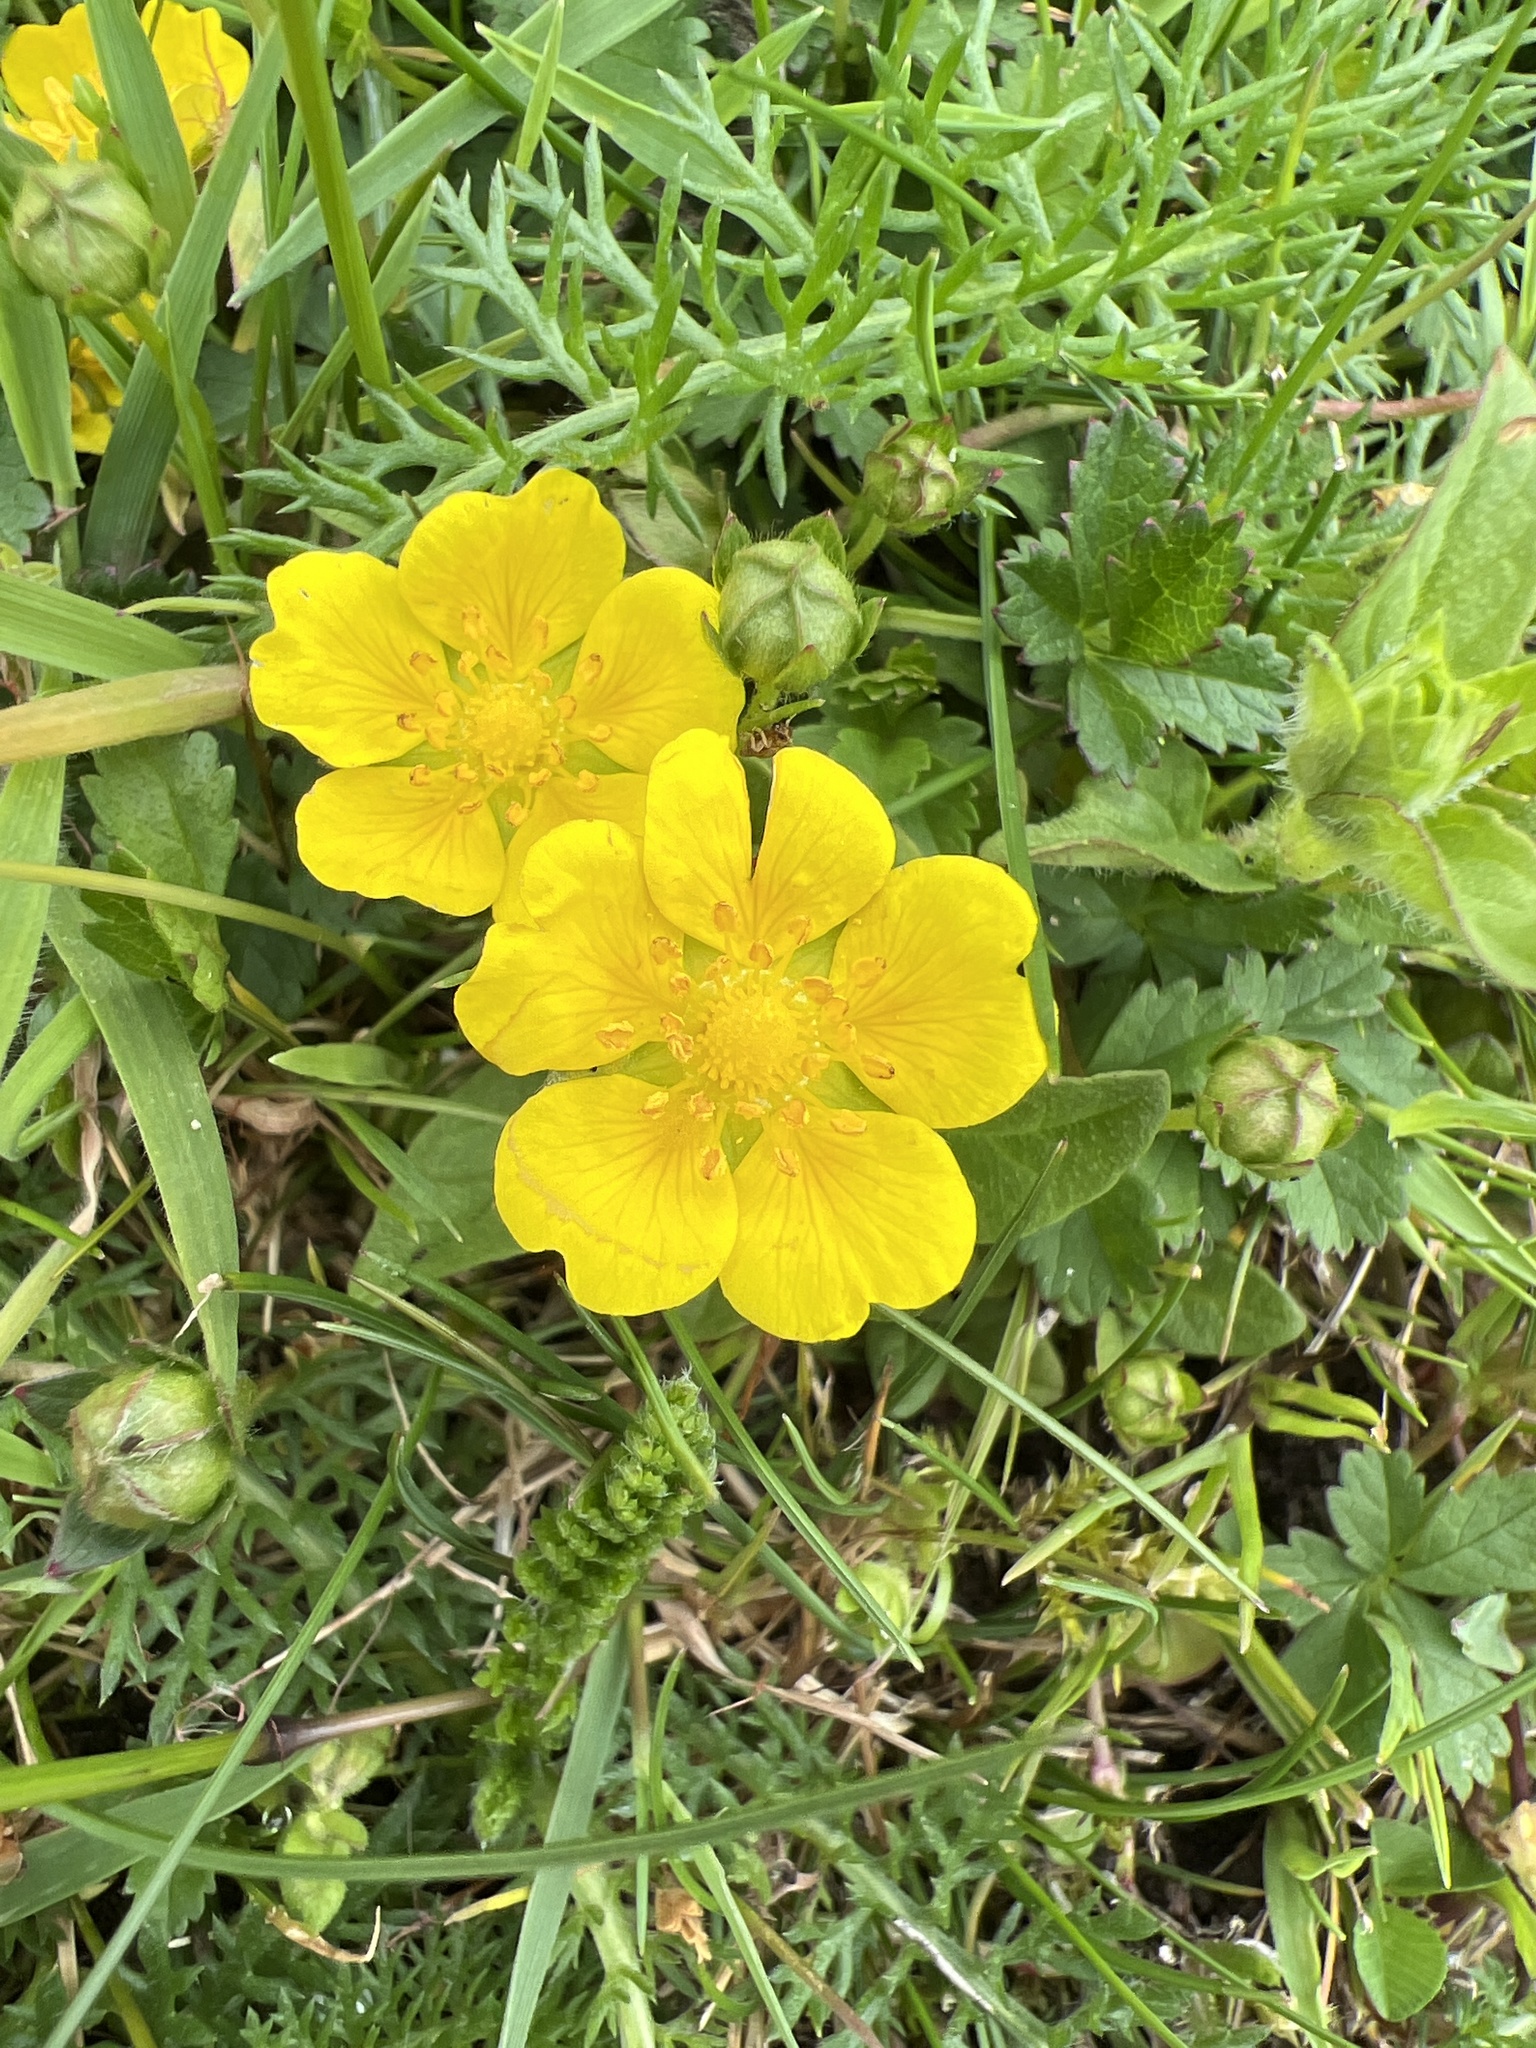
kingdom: Plantae
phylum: Tracheophyta
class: Magnoliopsida
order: Rosales
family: Rosaceae
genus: Potentilla
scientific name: Potentilla reptans
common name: Creeping cinquefoil
